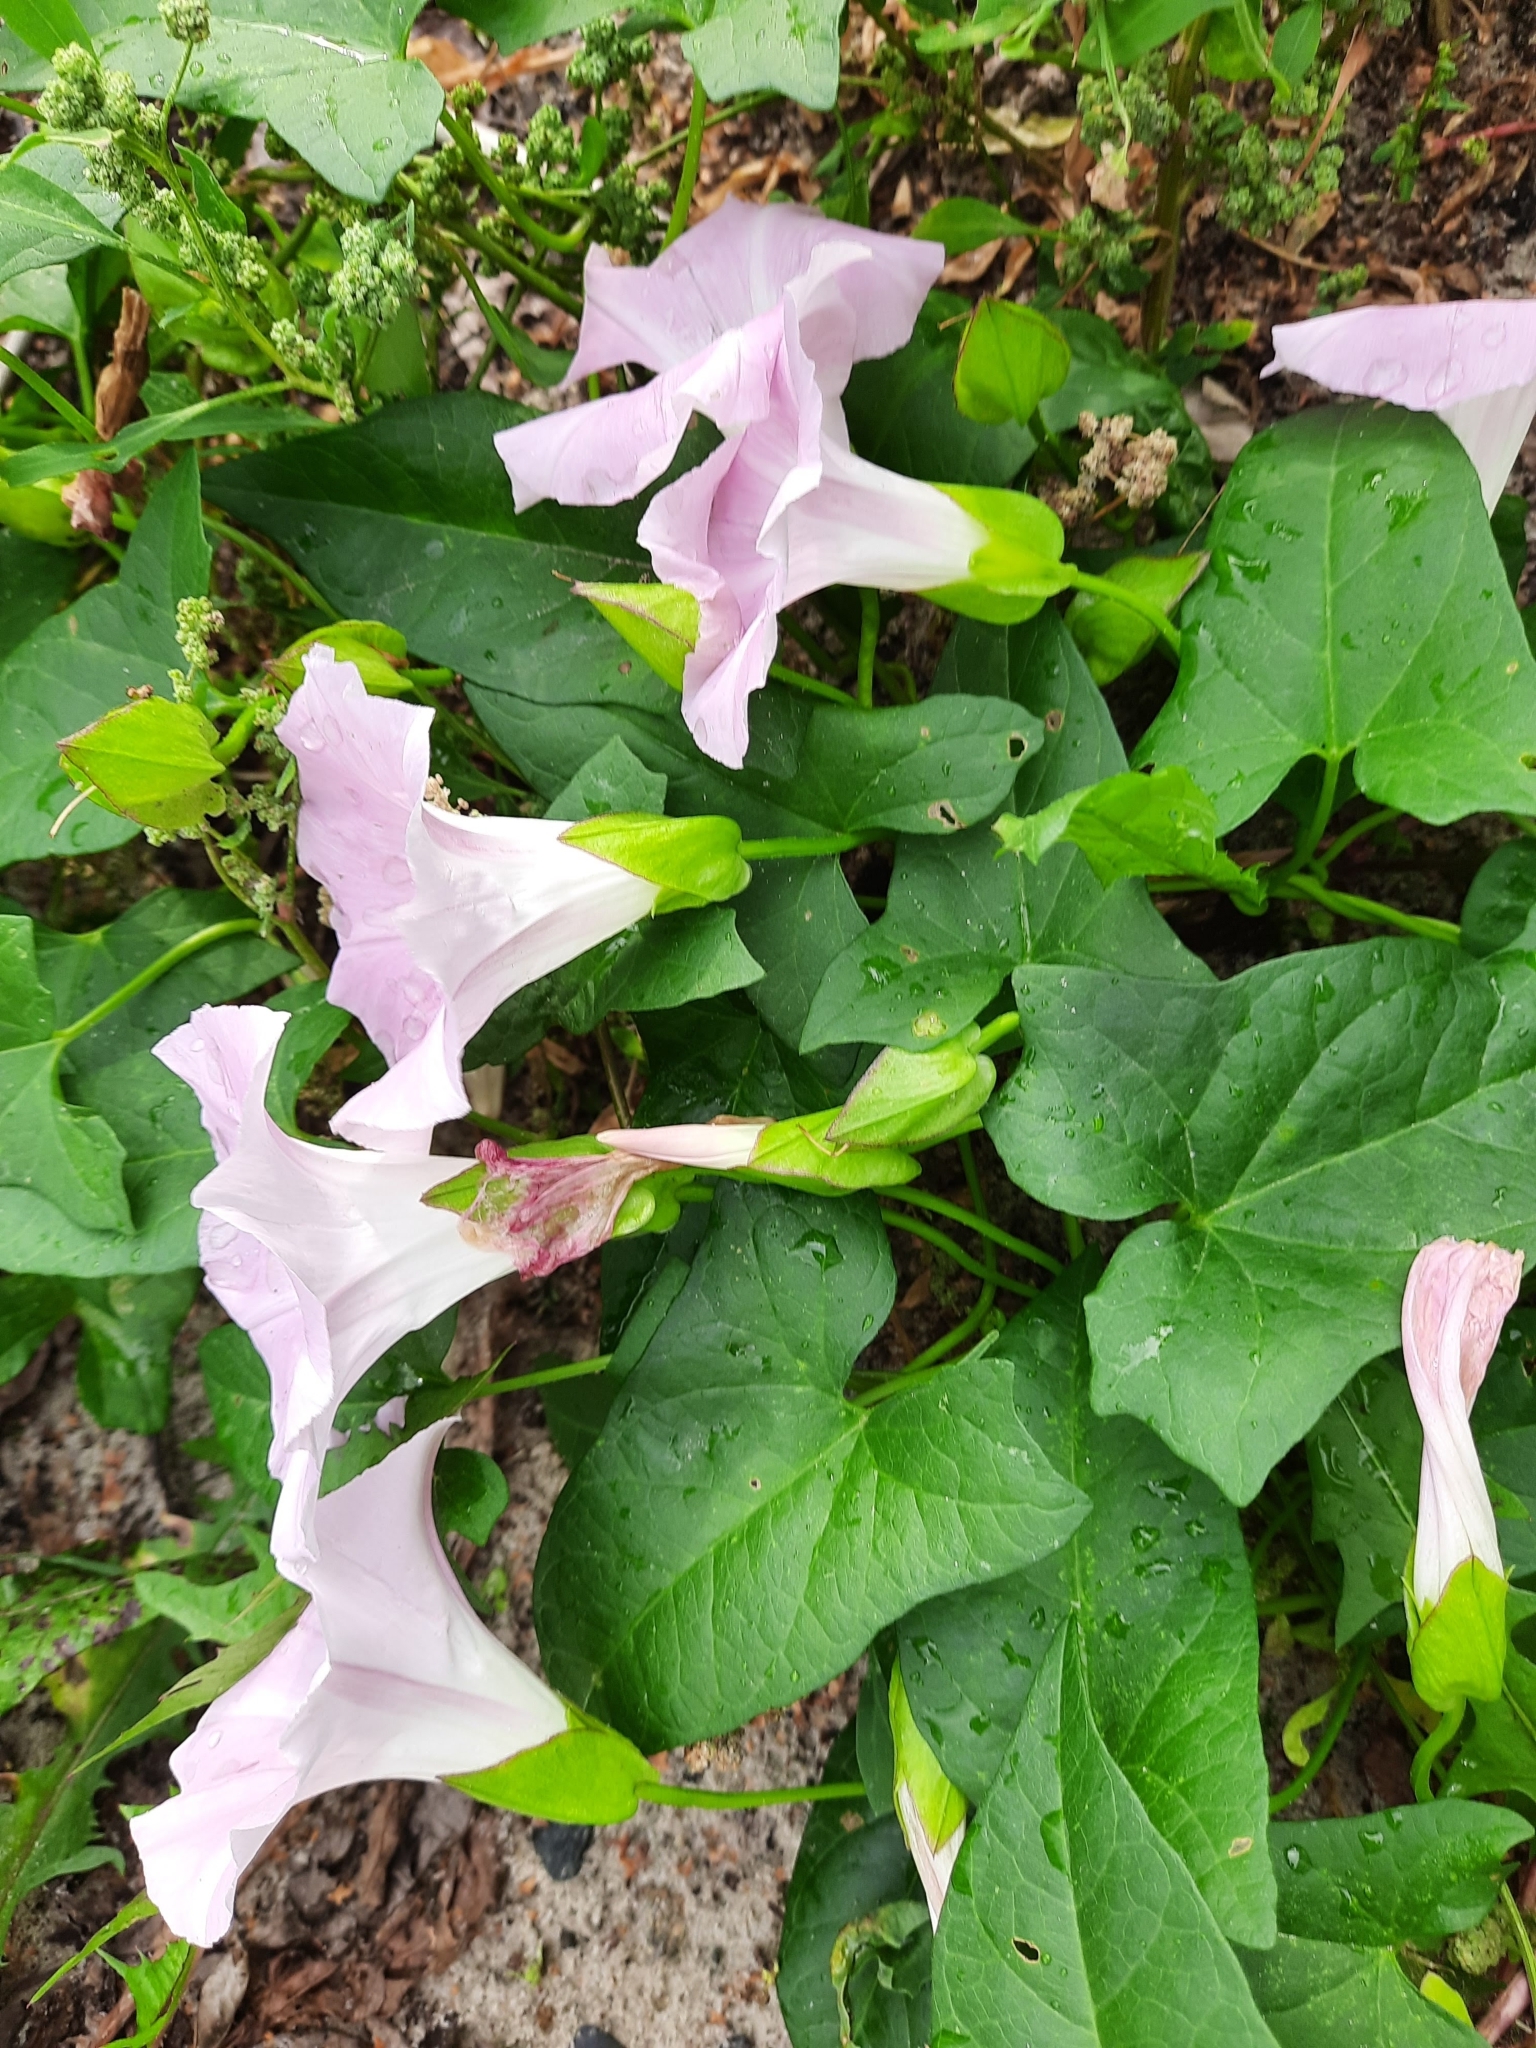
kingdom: Plantae
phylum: Tracheophyta
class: Magnoliopsida
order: Solanales
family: Convolvulaceae
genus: Calystegia
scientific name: Calystegia sepium
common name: Hedge bindweed
